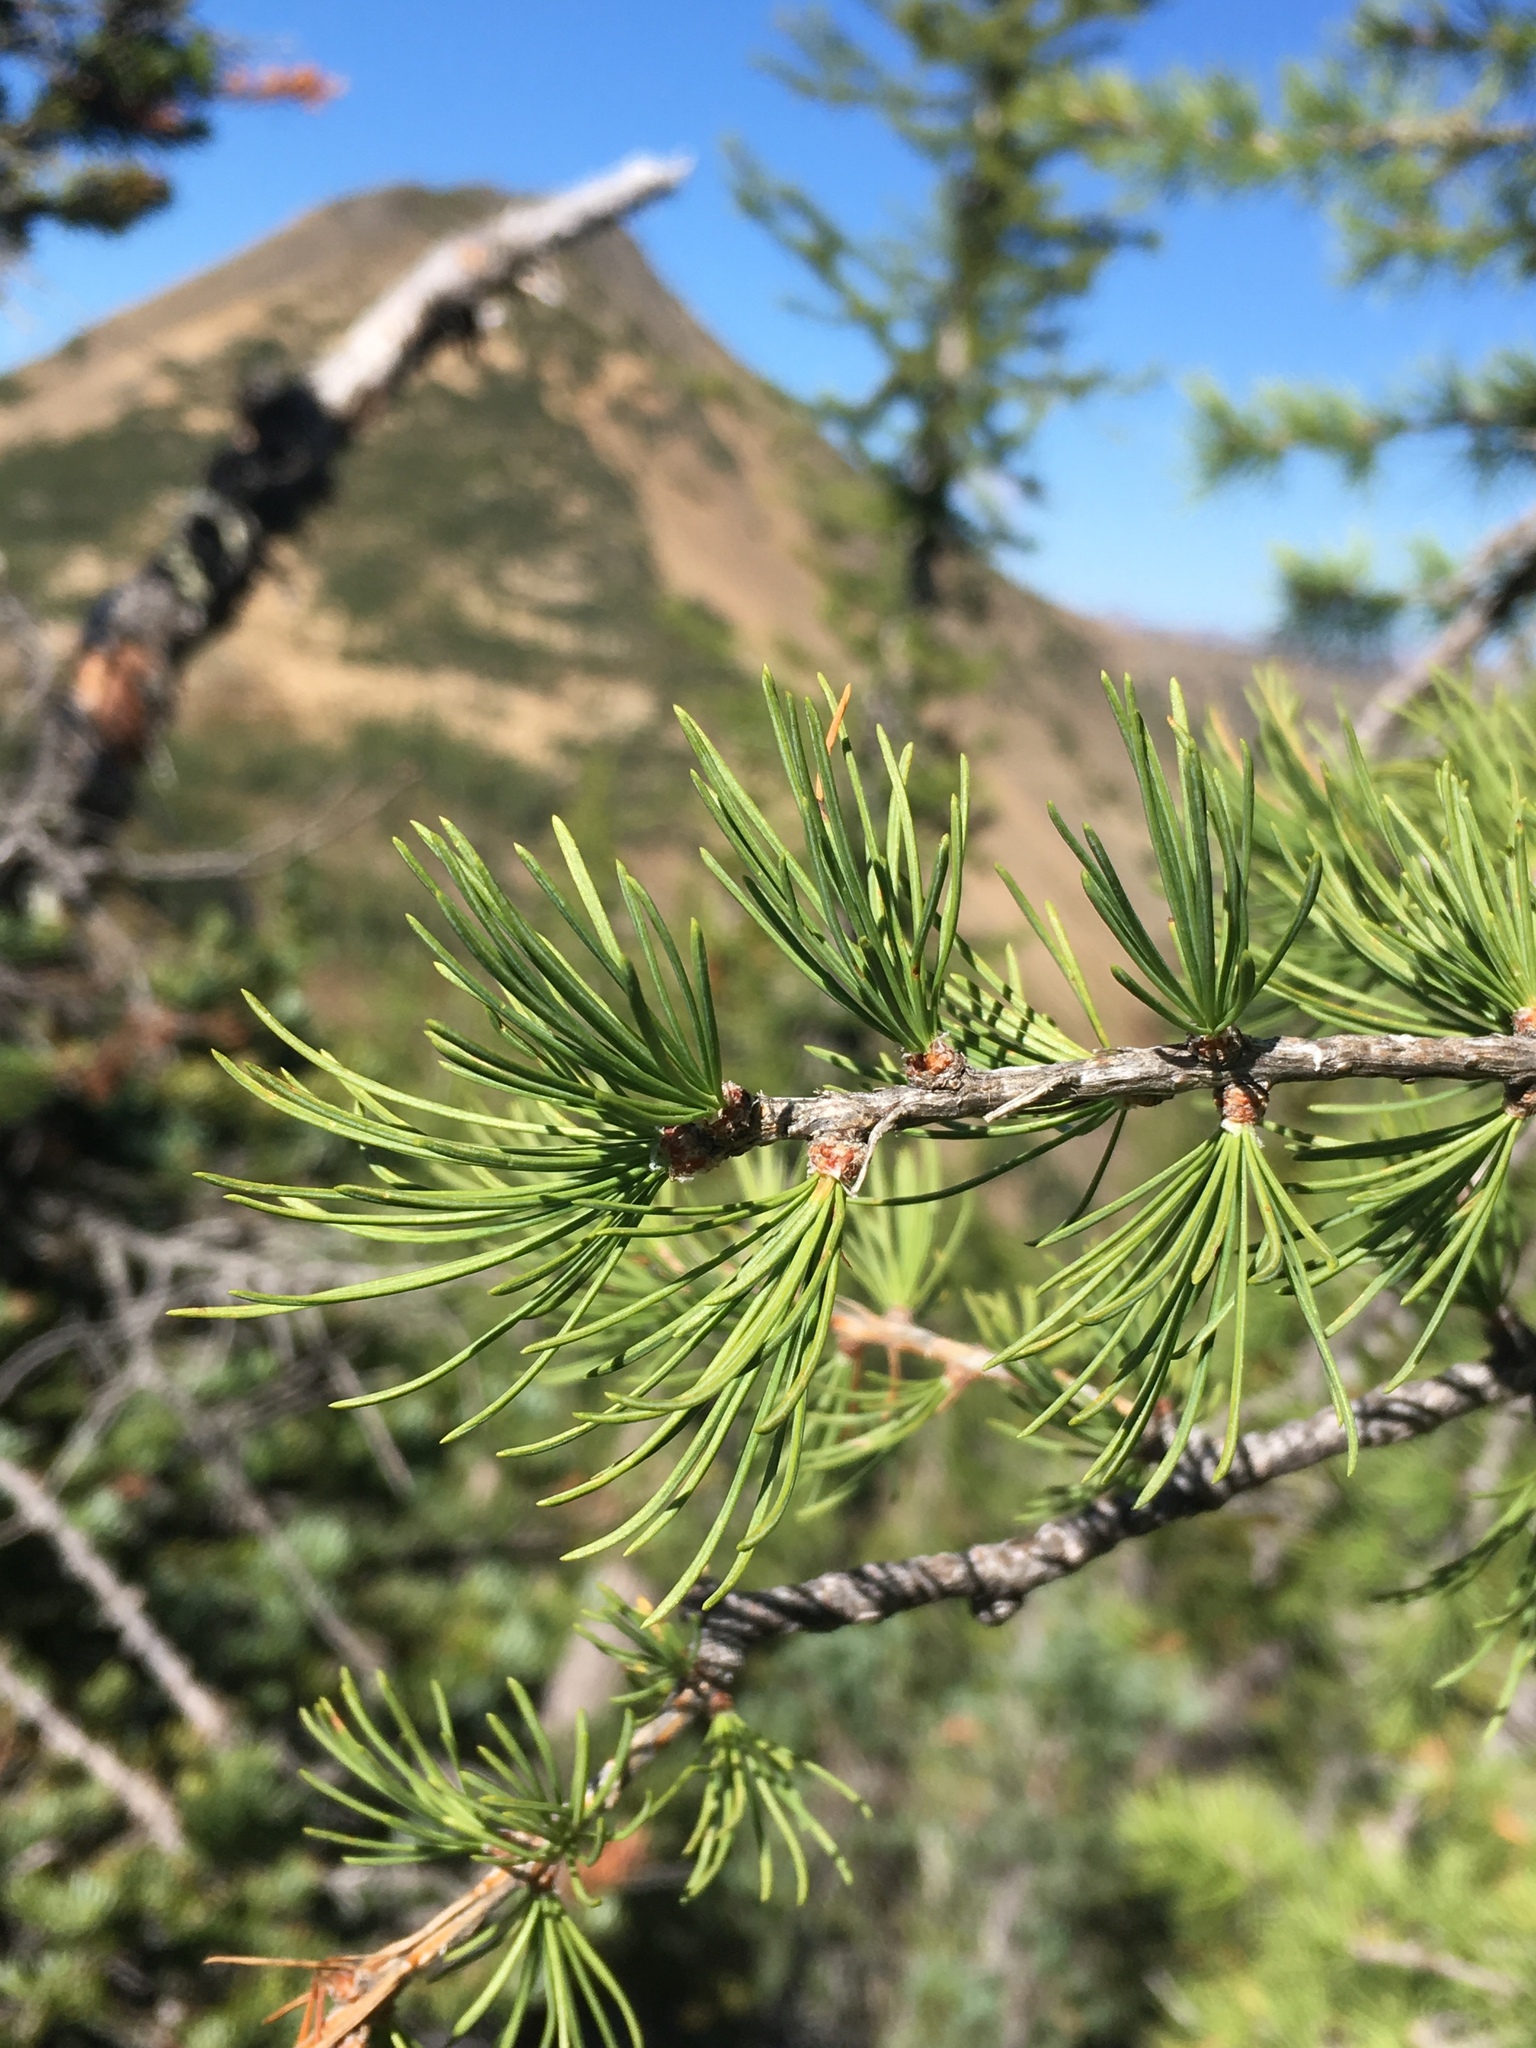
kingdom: Plantae
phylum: Tracheophyta
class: Pinopsida
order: Pinales
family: Pinaceae
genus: Larix
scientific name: Larix lyallii
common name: Alpine larch
